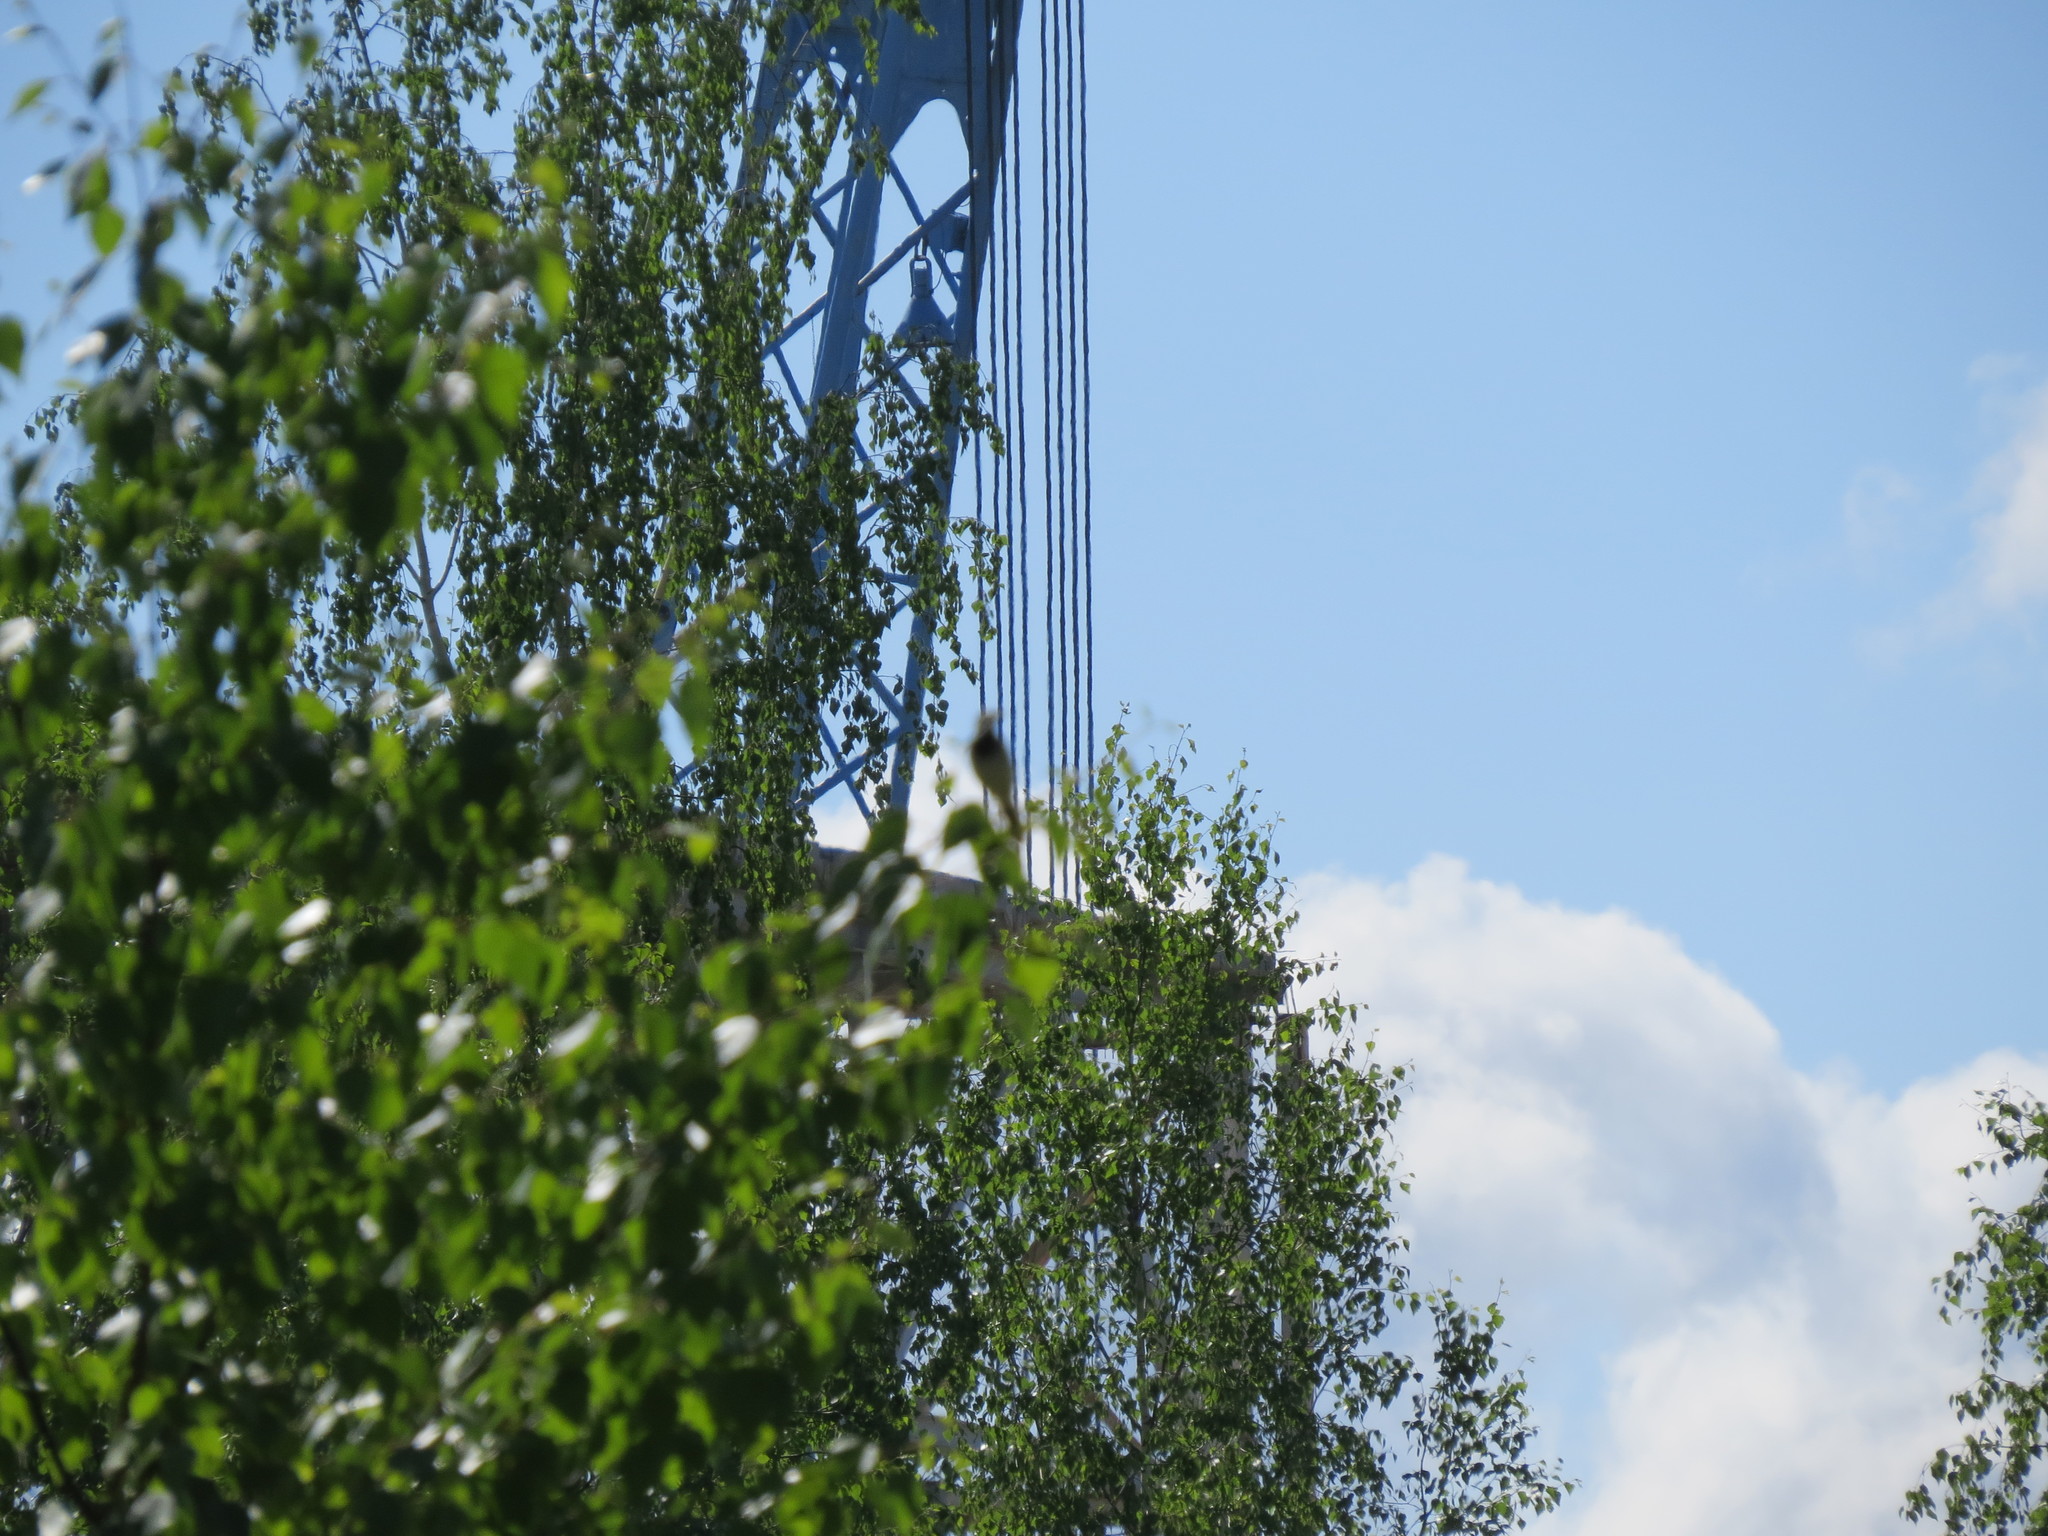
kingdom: Animalia
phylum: Chordata
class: Aves
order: Passeriformes
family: Motacillidae
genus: Motacilla
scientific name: Motacilla alba
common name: White wagtail
